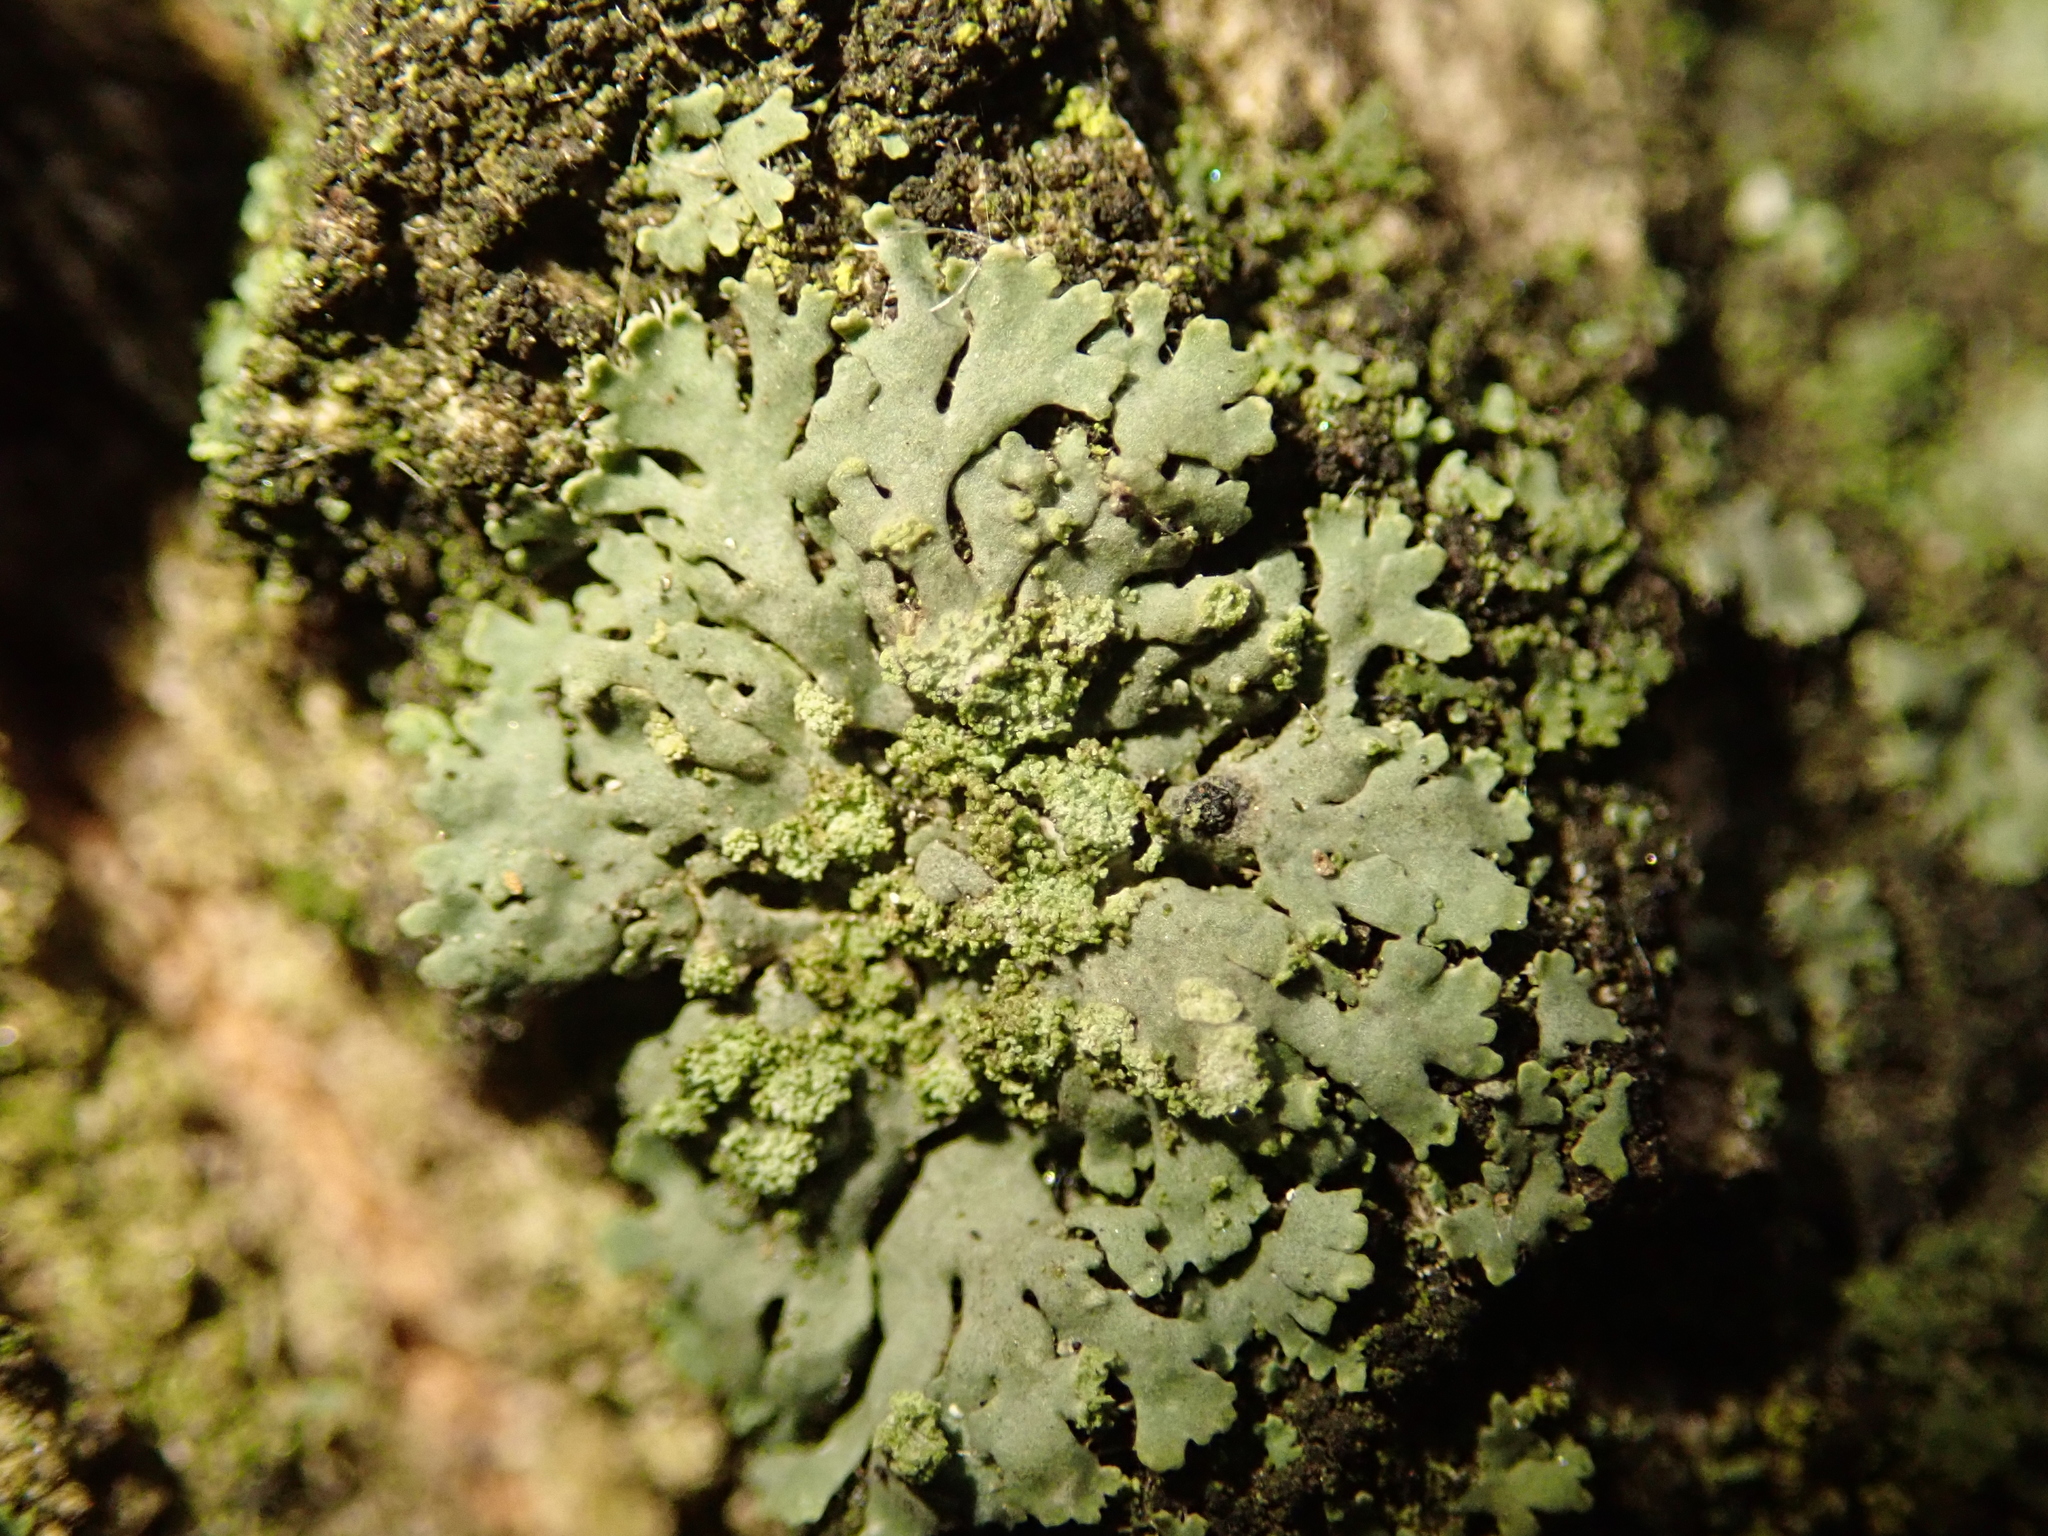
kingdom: Fungi
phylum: Ascomycota
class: Lecanoromycetes
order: Caliciales
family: Physciaceae
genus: Phaeophyscia
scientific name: Phaeophyscia orbicularis
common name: Mealy shadow lichen
